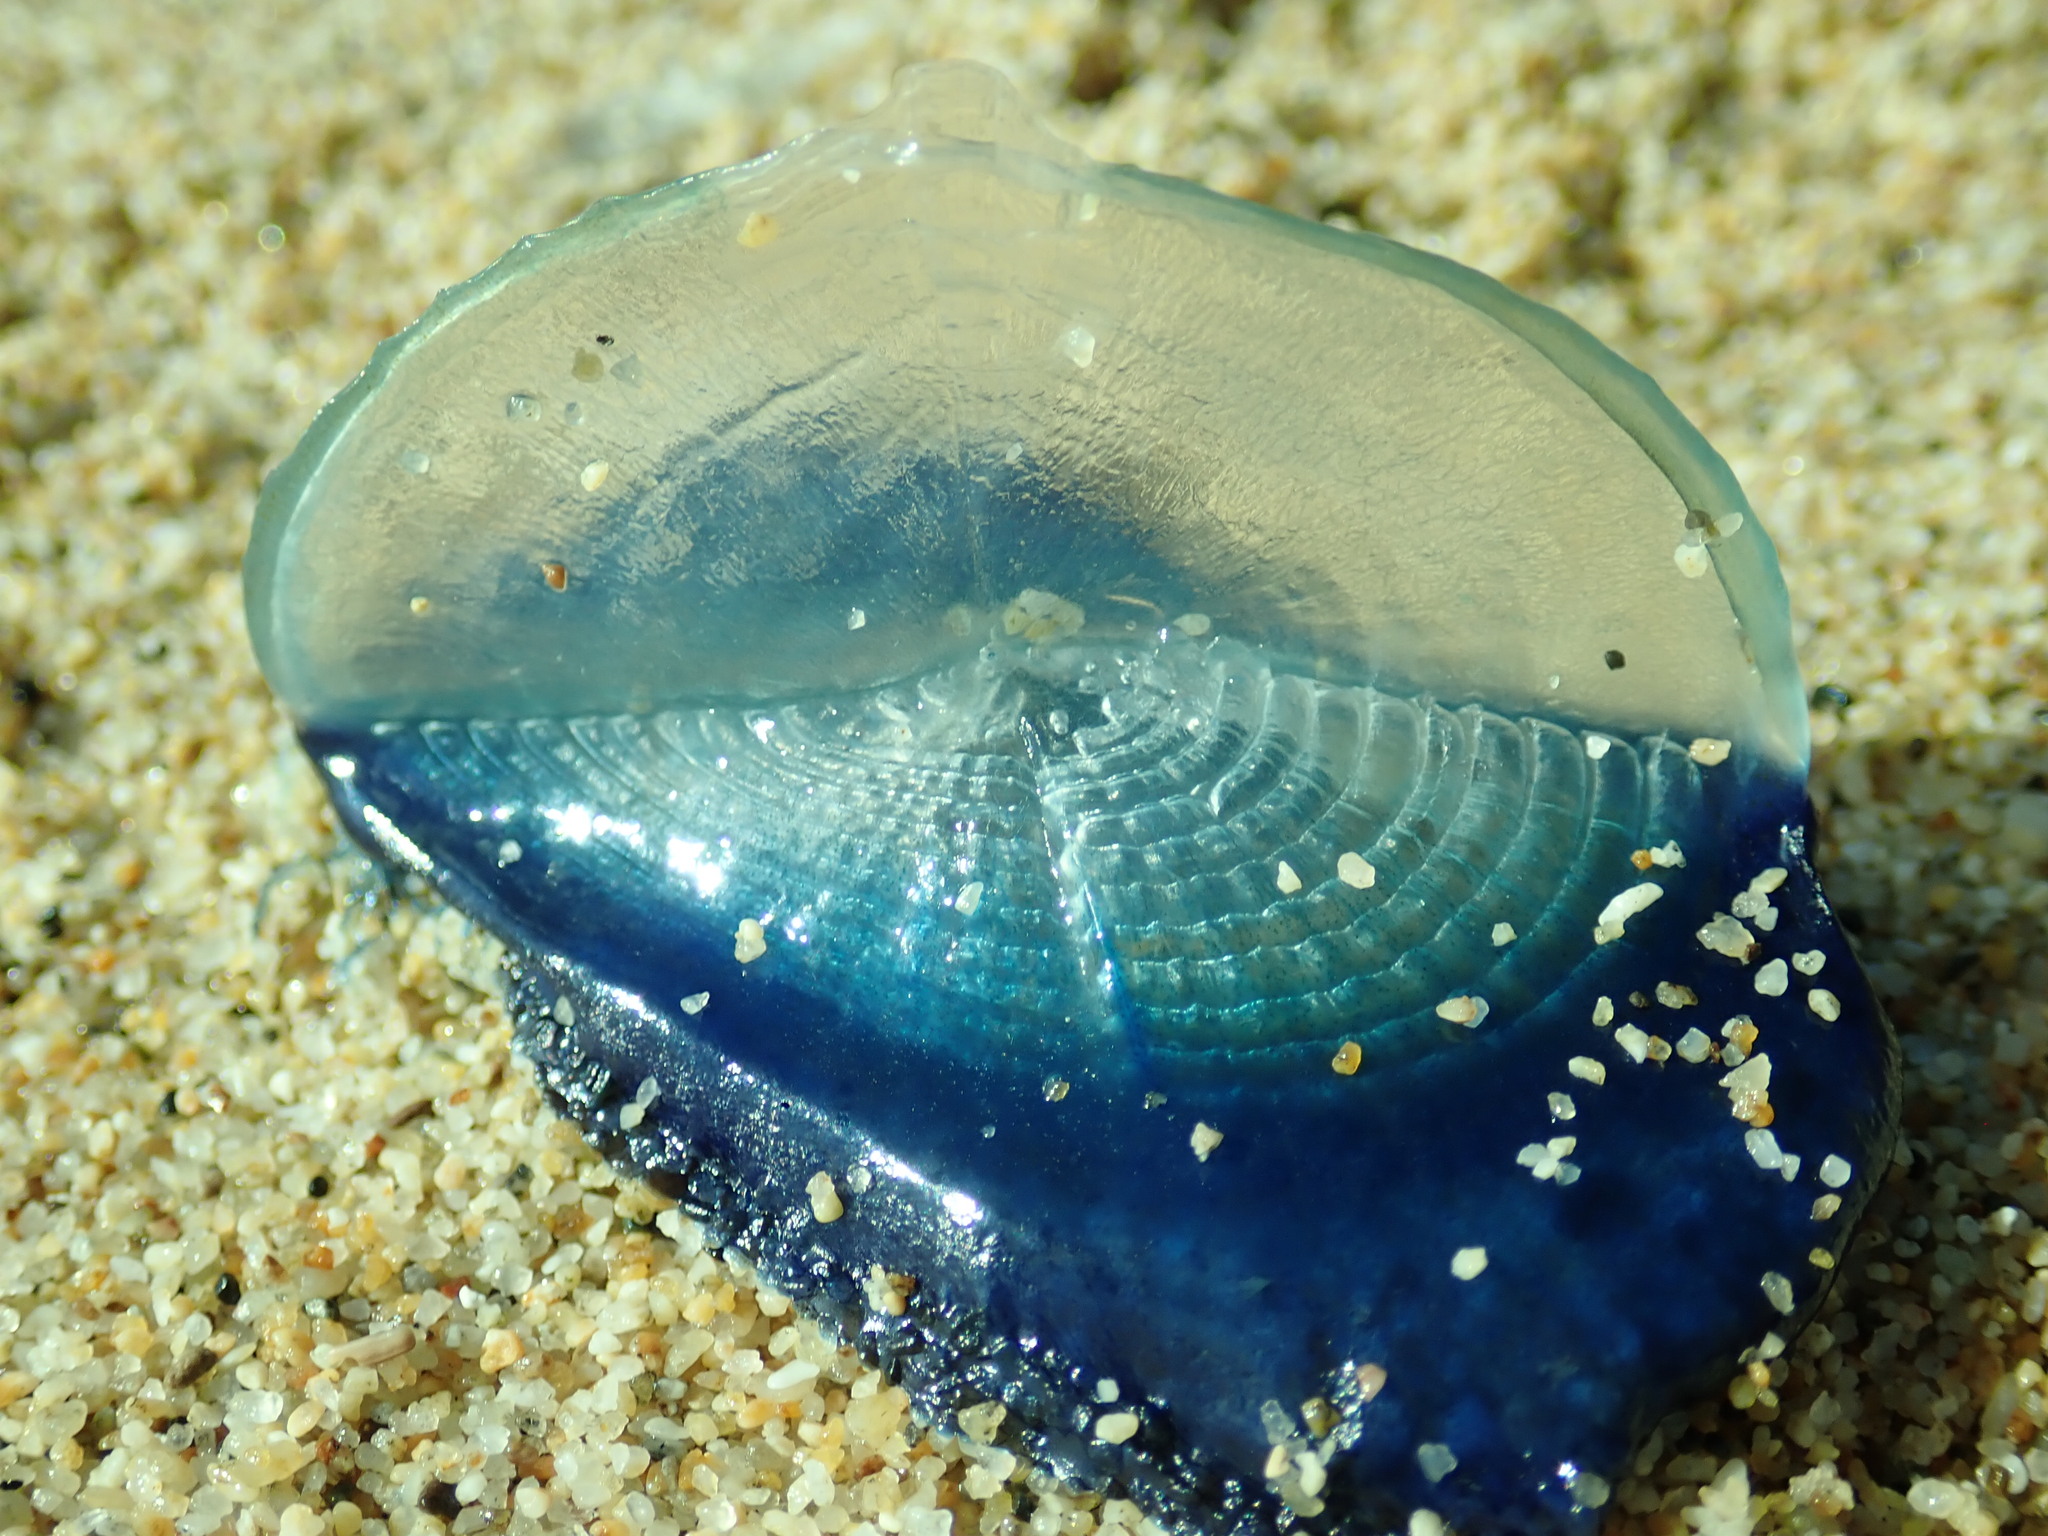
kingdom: Animalia
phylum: Cnidaria
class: Hydrozoa
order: Anthoathecata
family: Porpitidae
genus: Velella
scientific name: Velella velella
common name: By-the-wind-sailor
